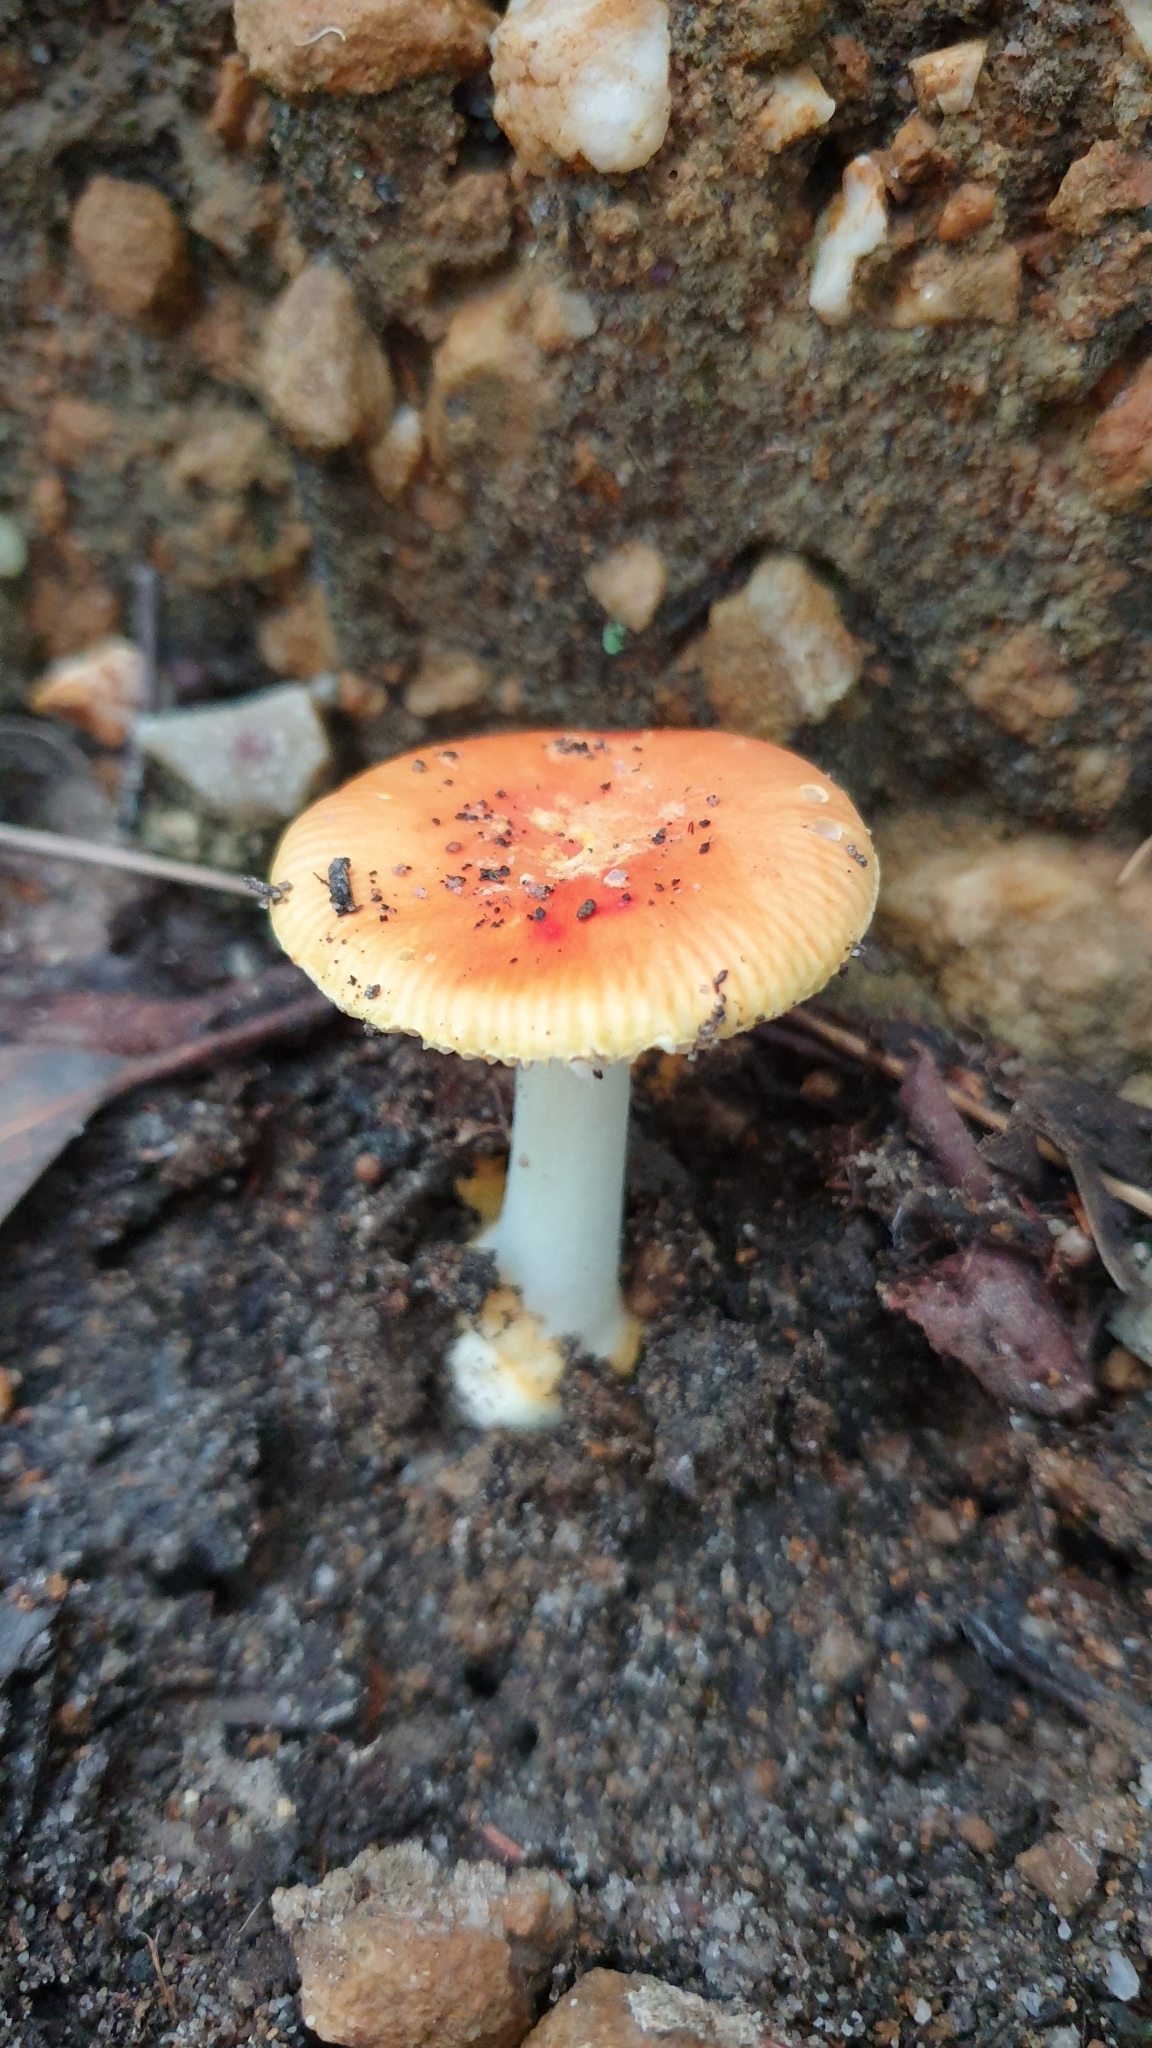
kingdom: Fungi
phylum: Basidiomycota
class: Agaricomycetes
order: Agaricales
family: Amanitaceae
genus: Amanita
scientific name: Amanita xanthocephala
